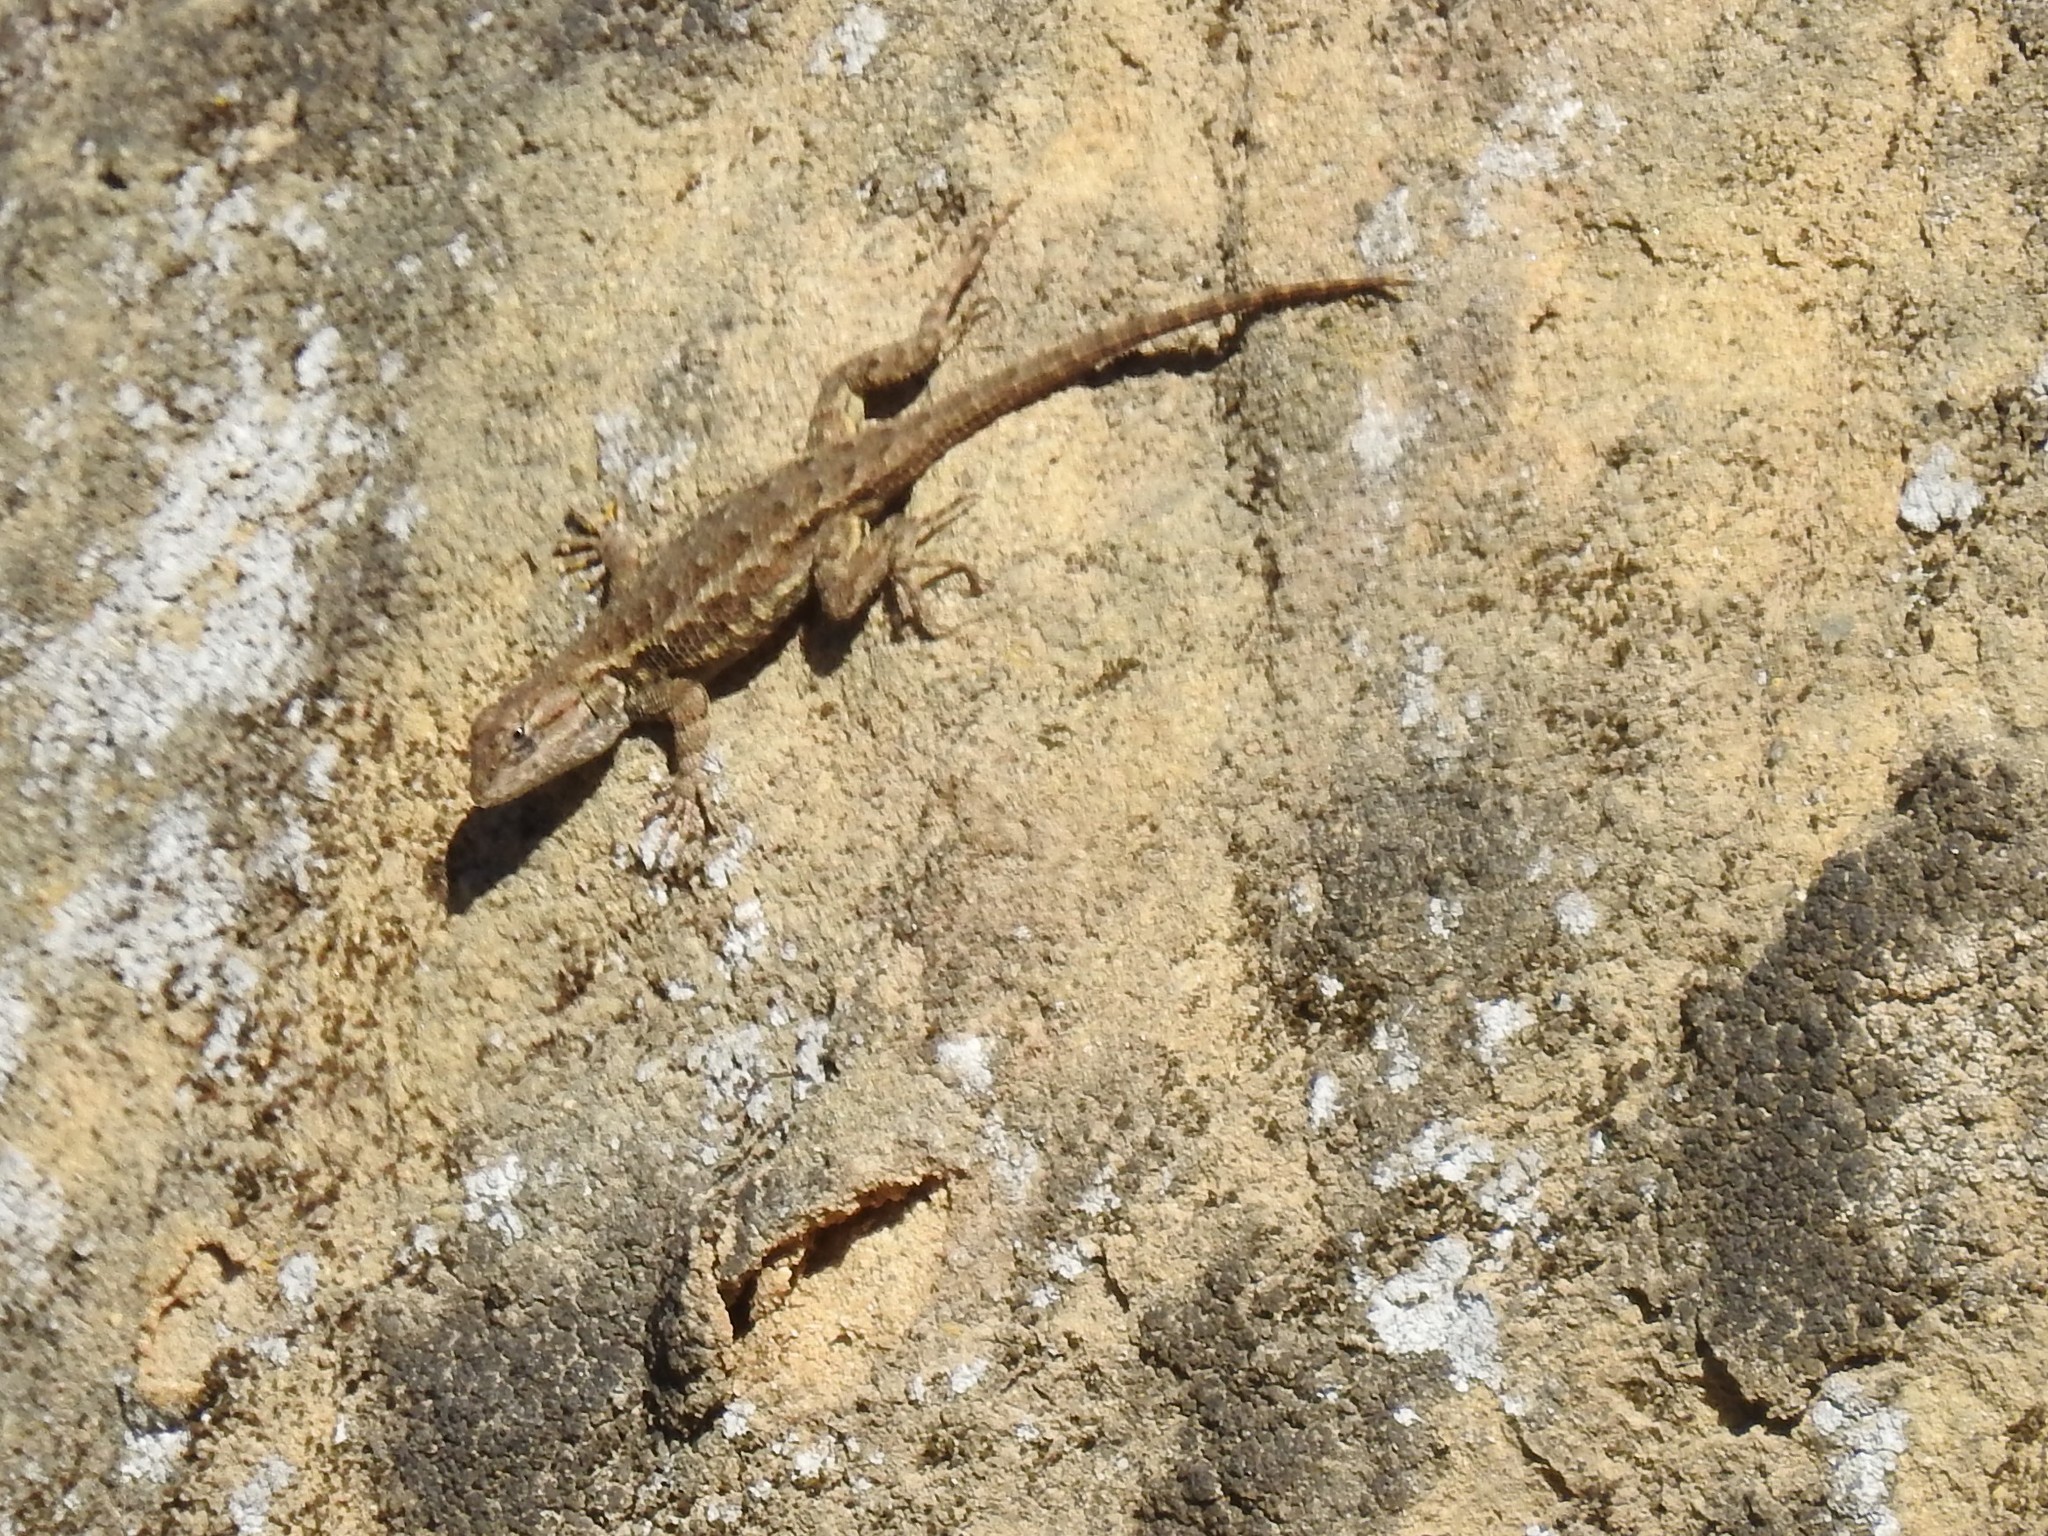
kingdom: Animalia
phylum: Chordata
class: Squamata
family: Phrynosomatidae
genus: Sceloporus
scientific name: Sceloporus occidentalis
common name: Western fence lizard
